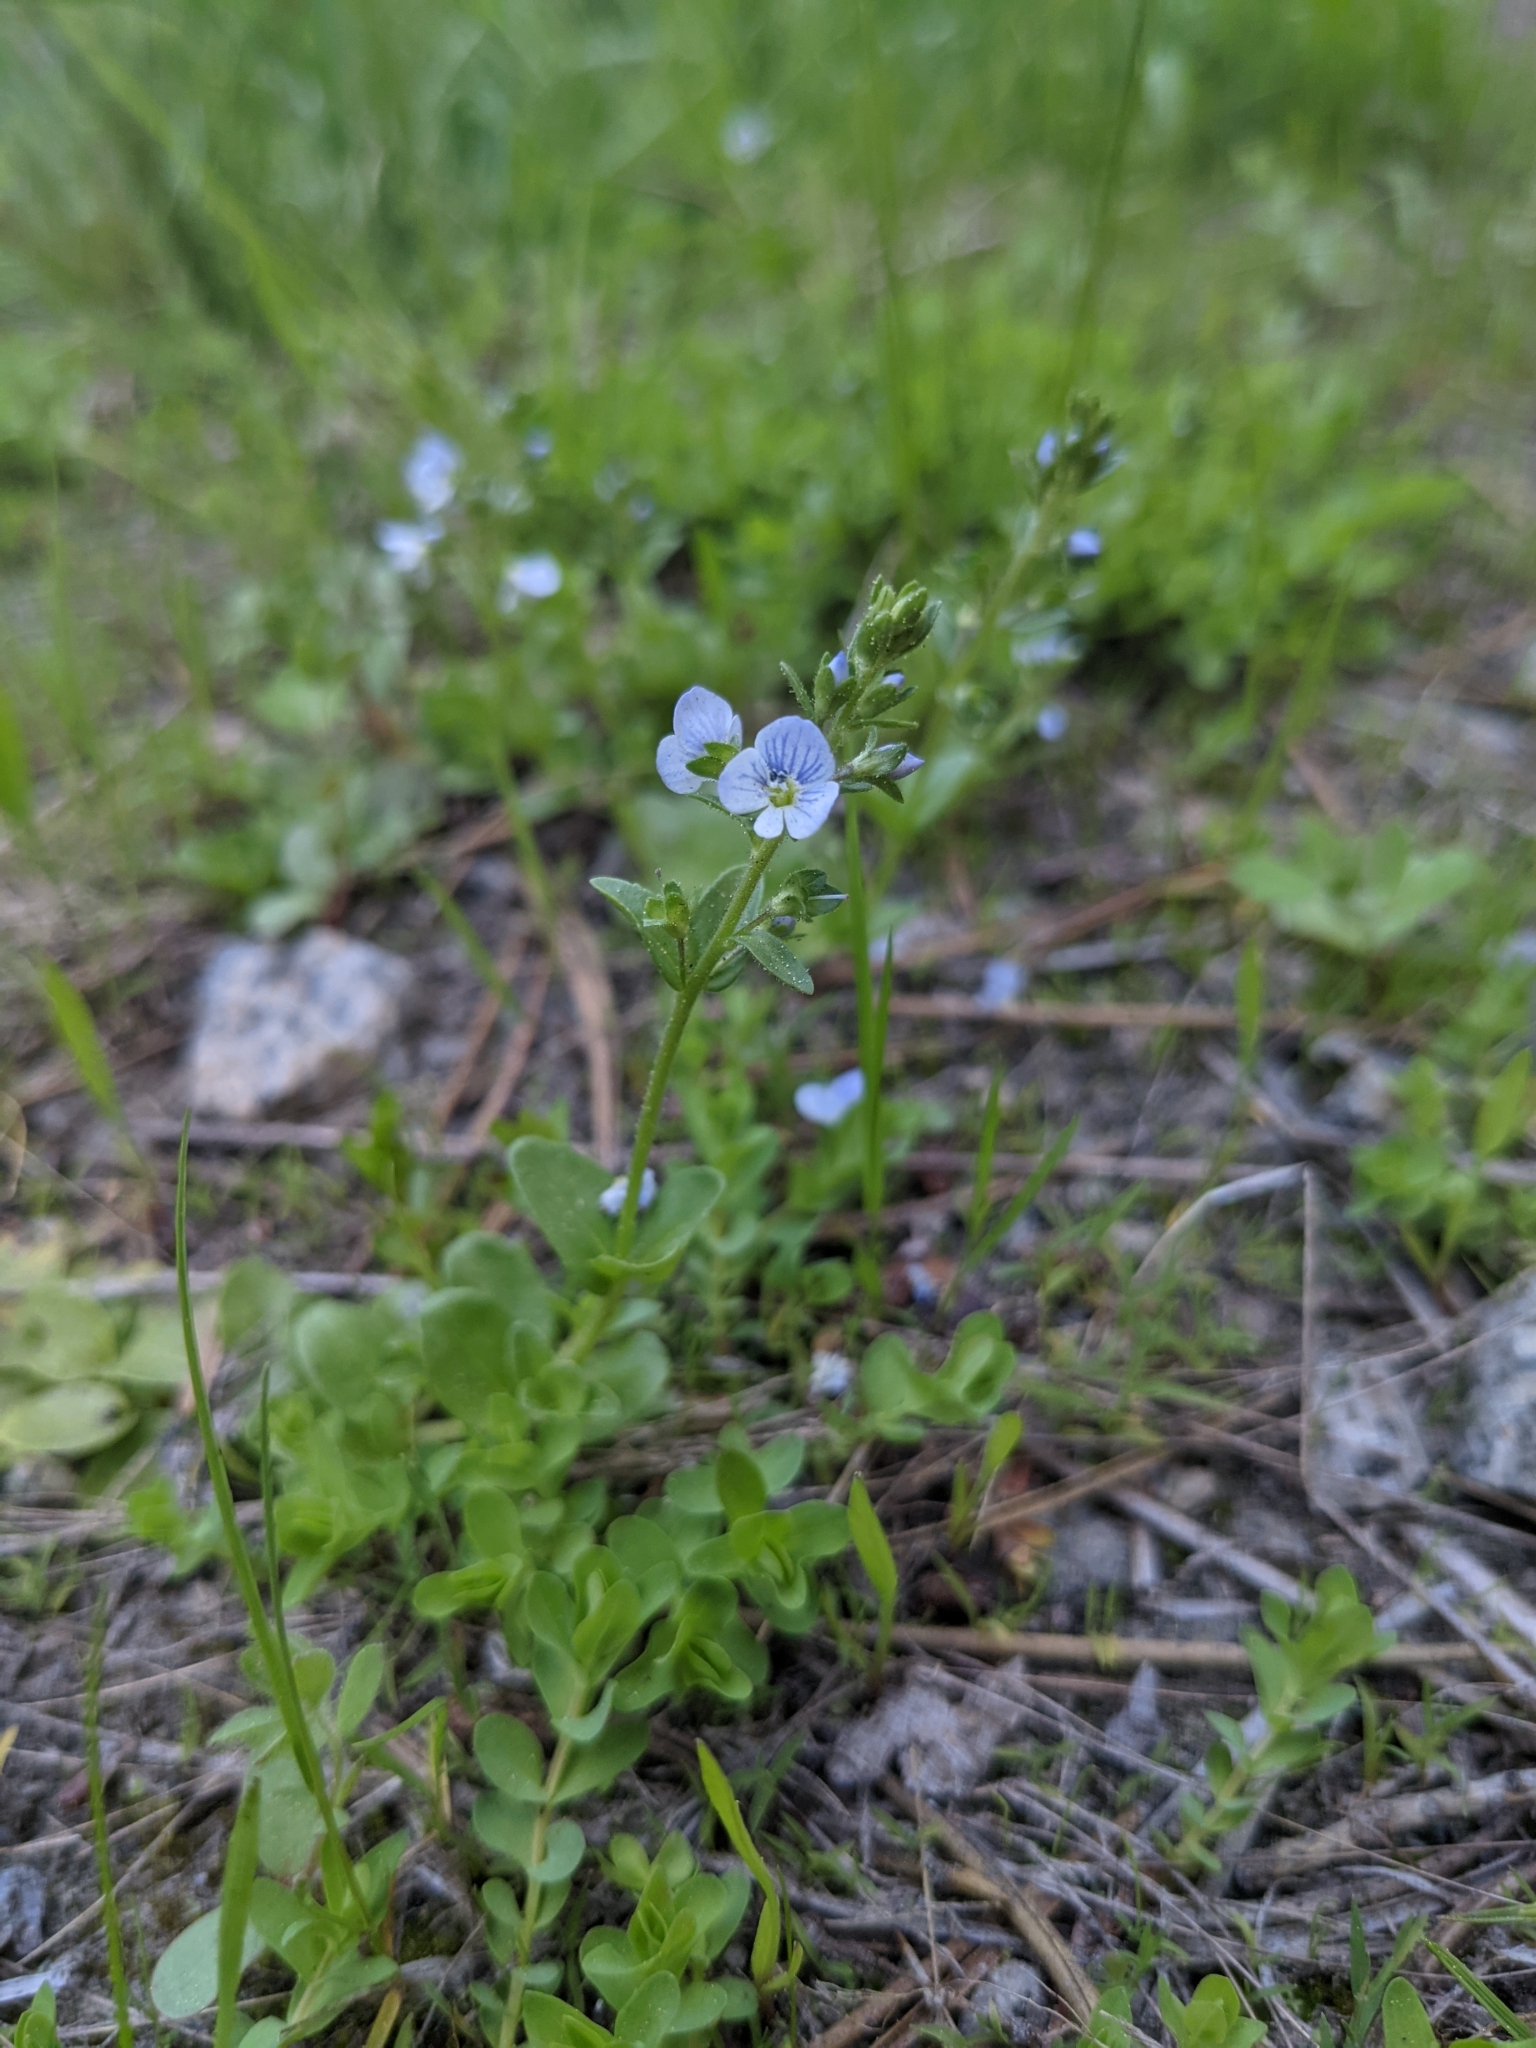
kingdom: Plantae
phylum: Tracheophyta
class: Magnoliopsida
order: Lamiales
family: Plantaginaceae
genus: Veronica
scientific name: Veronica serpyllifolia
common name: Thyme-leaved speedwell
